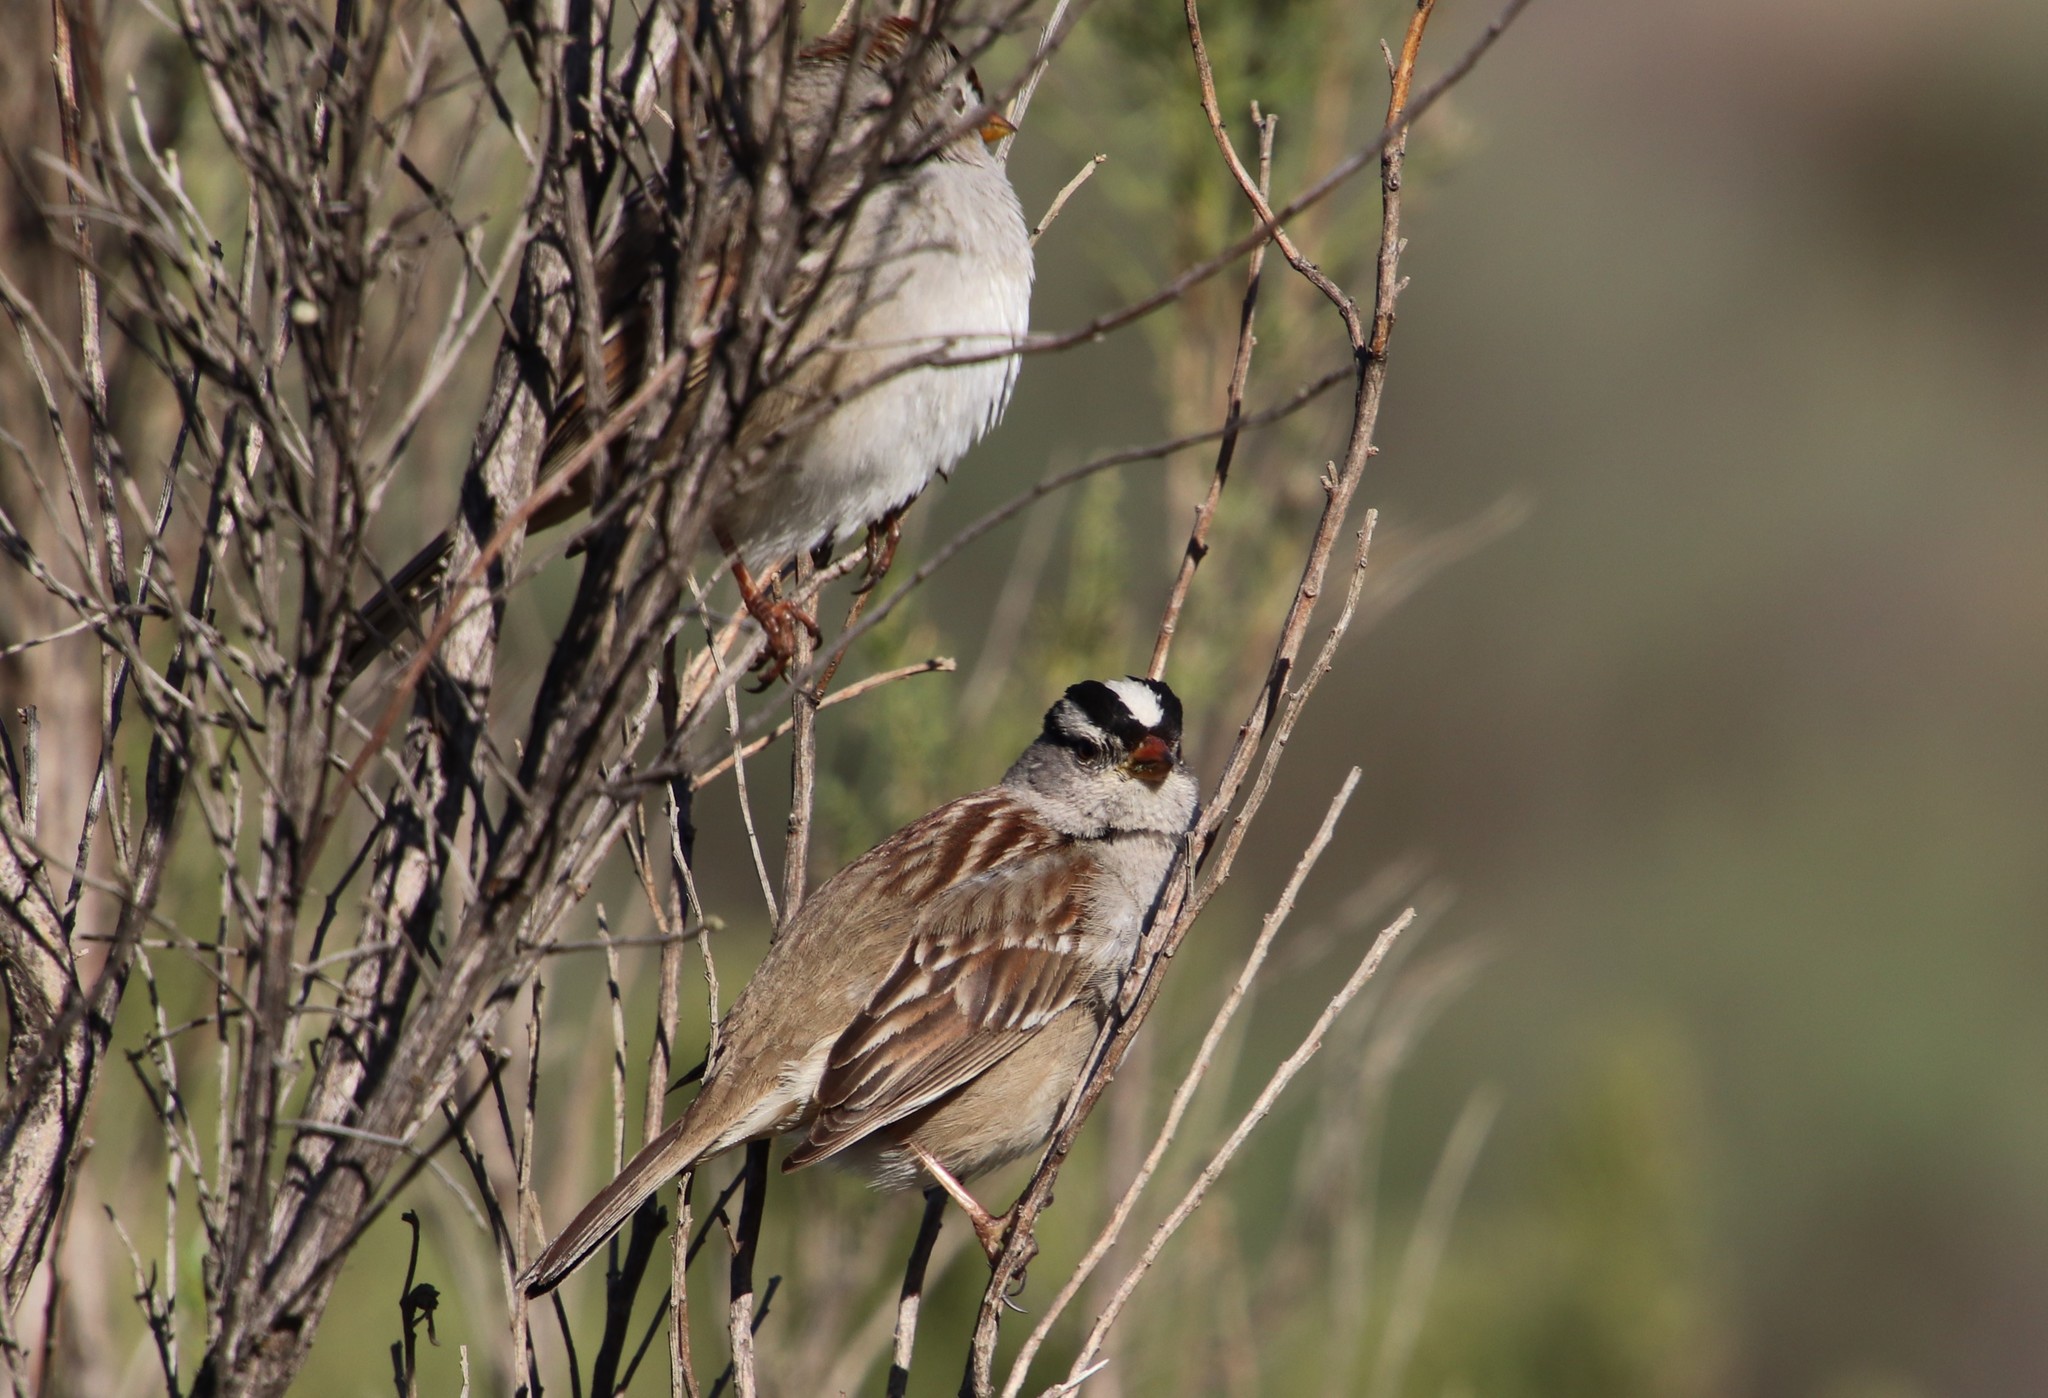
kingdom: Animalia
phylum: Chordata
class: Aves
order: Passeriformes
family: Passerellidae
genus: Zonotrichia
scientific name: Zonotrichia leucophrys
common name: White-crowned sparrow
